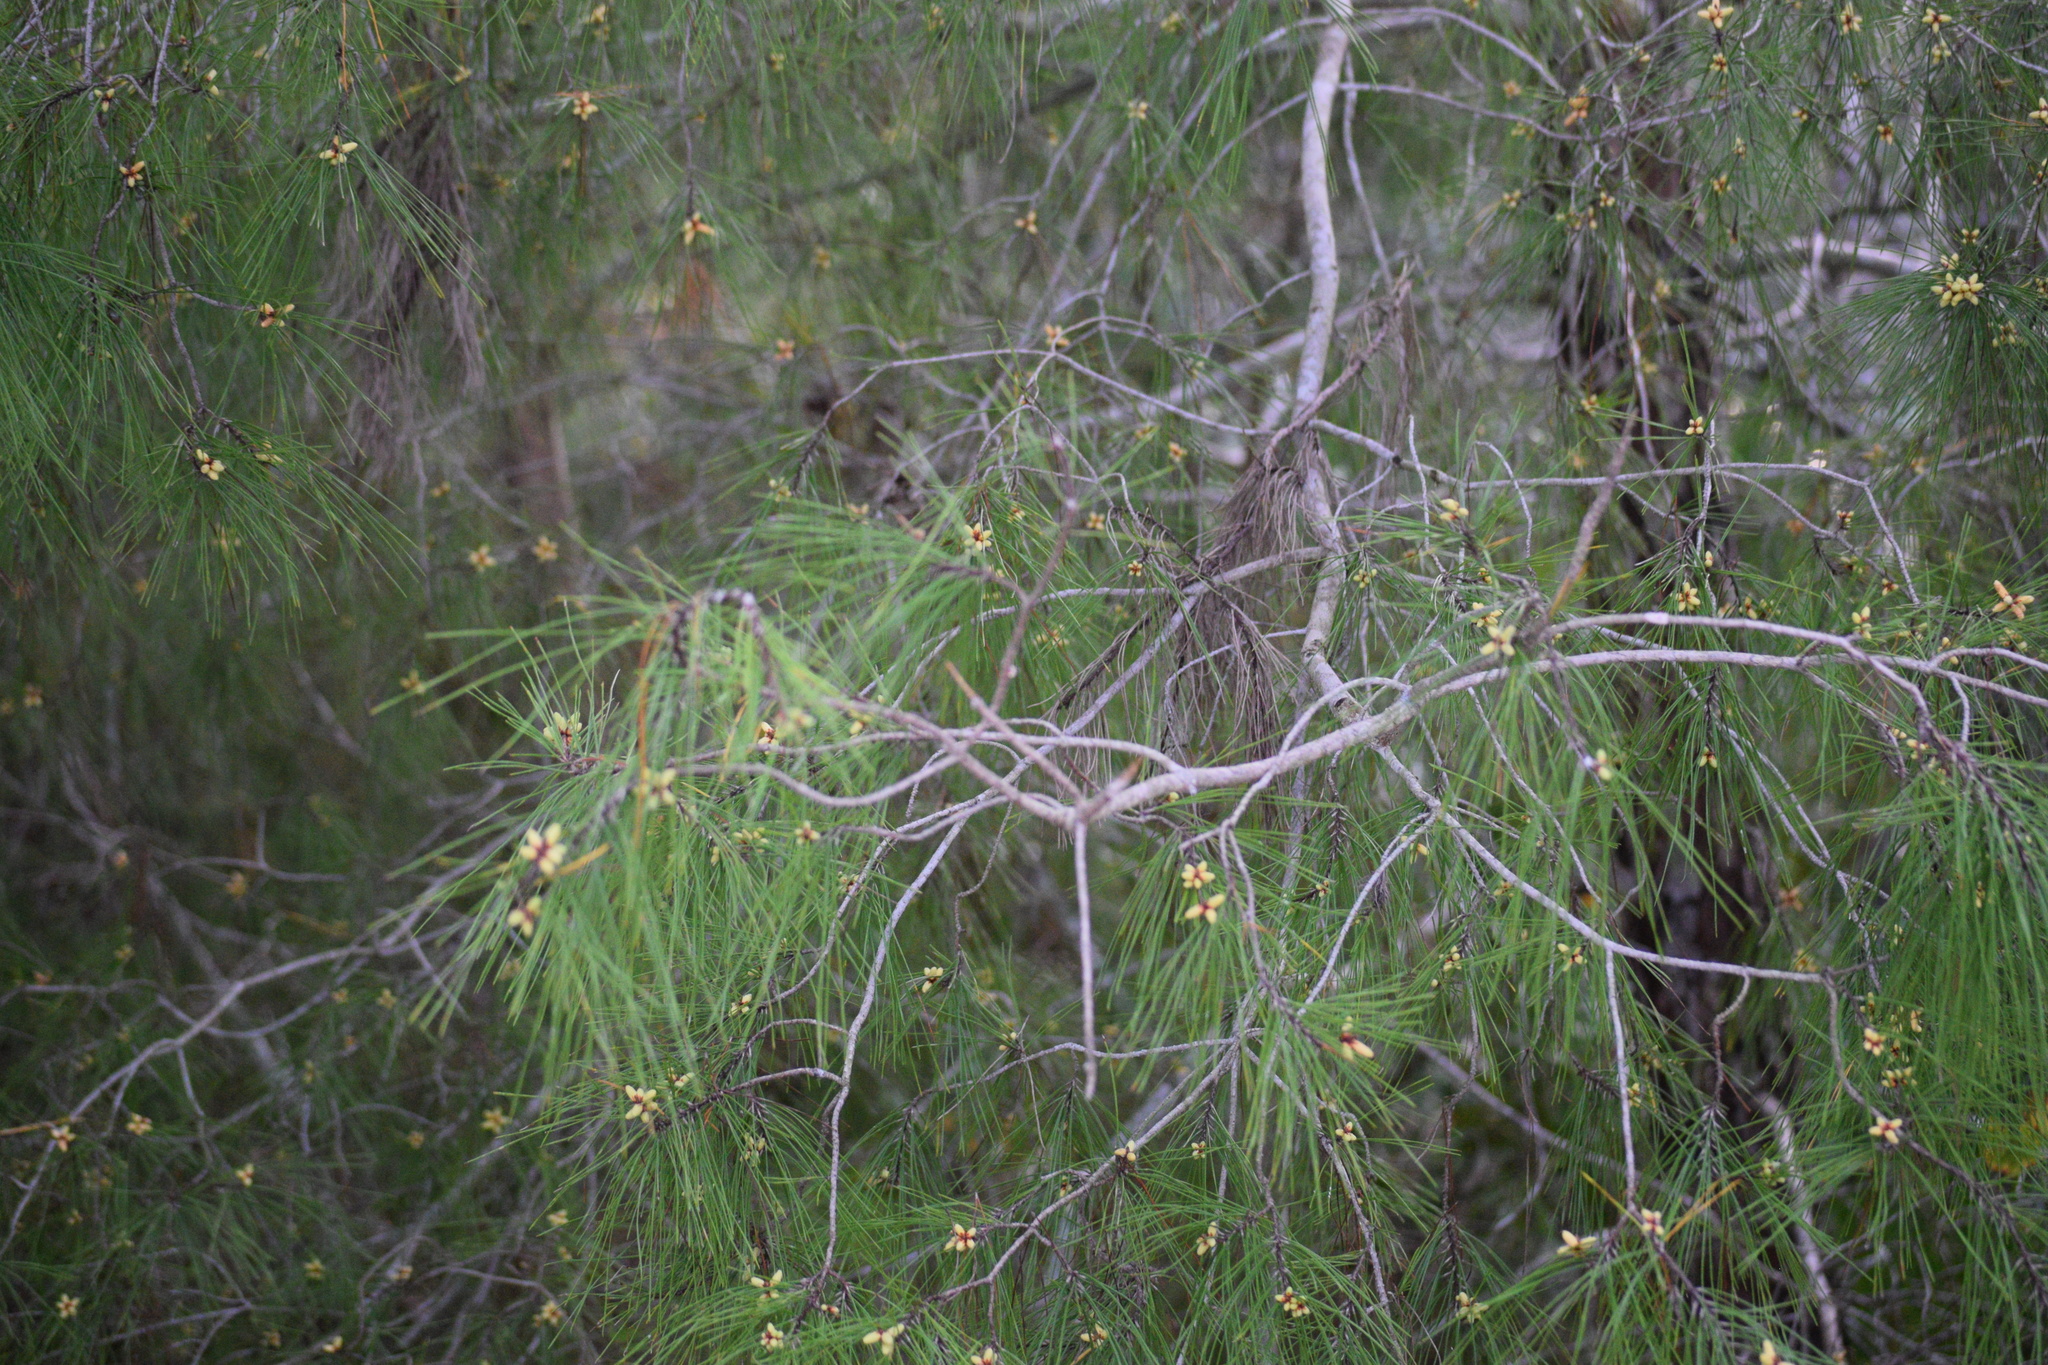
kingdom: Plantae
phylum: Tracheophyta
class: Pinopsida
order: Pinales
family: Pinaceae
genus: Pinus
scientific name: Pinus clausa
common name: Sand pine
